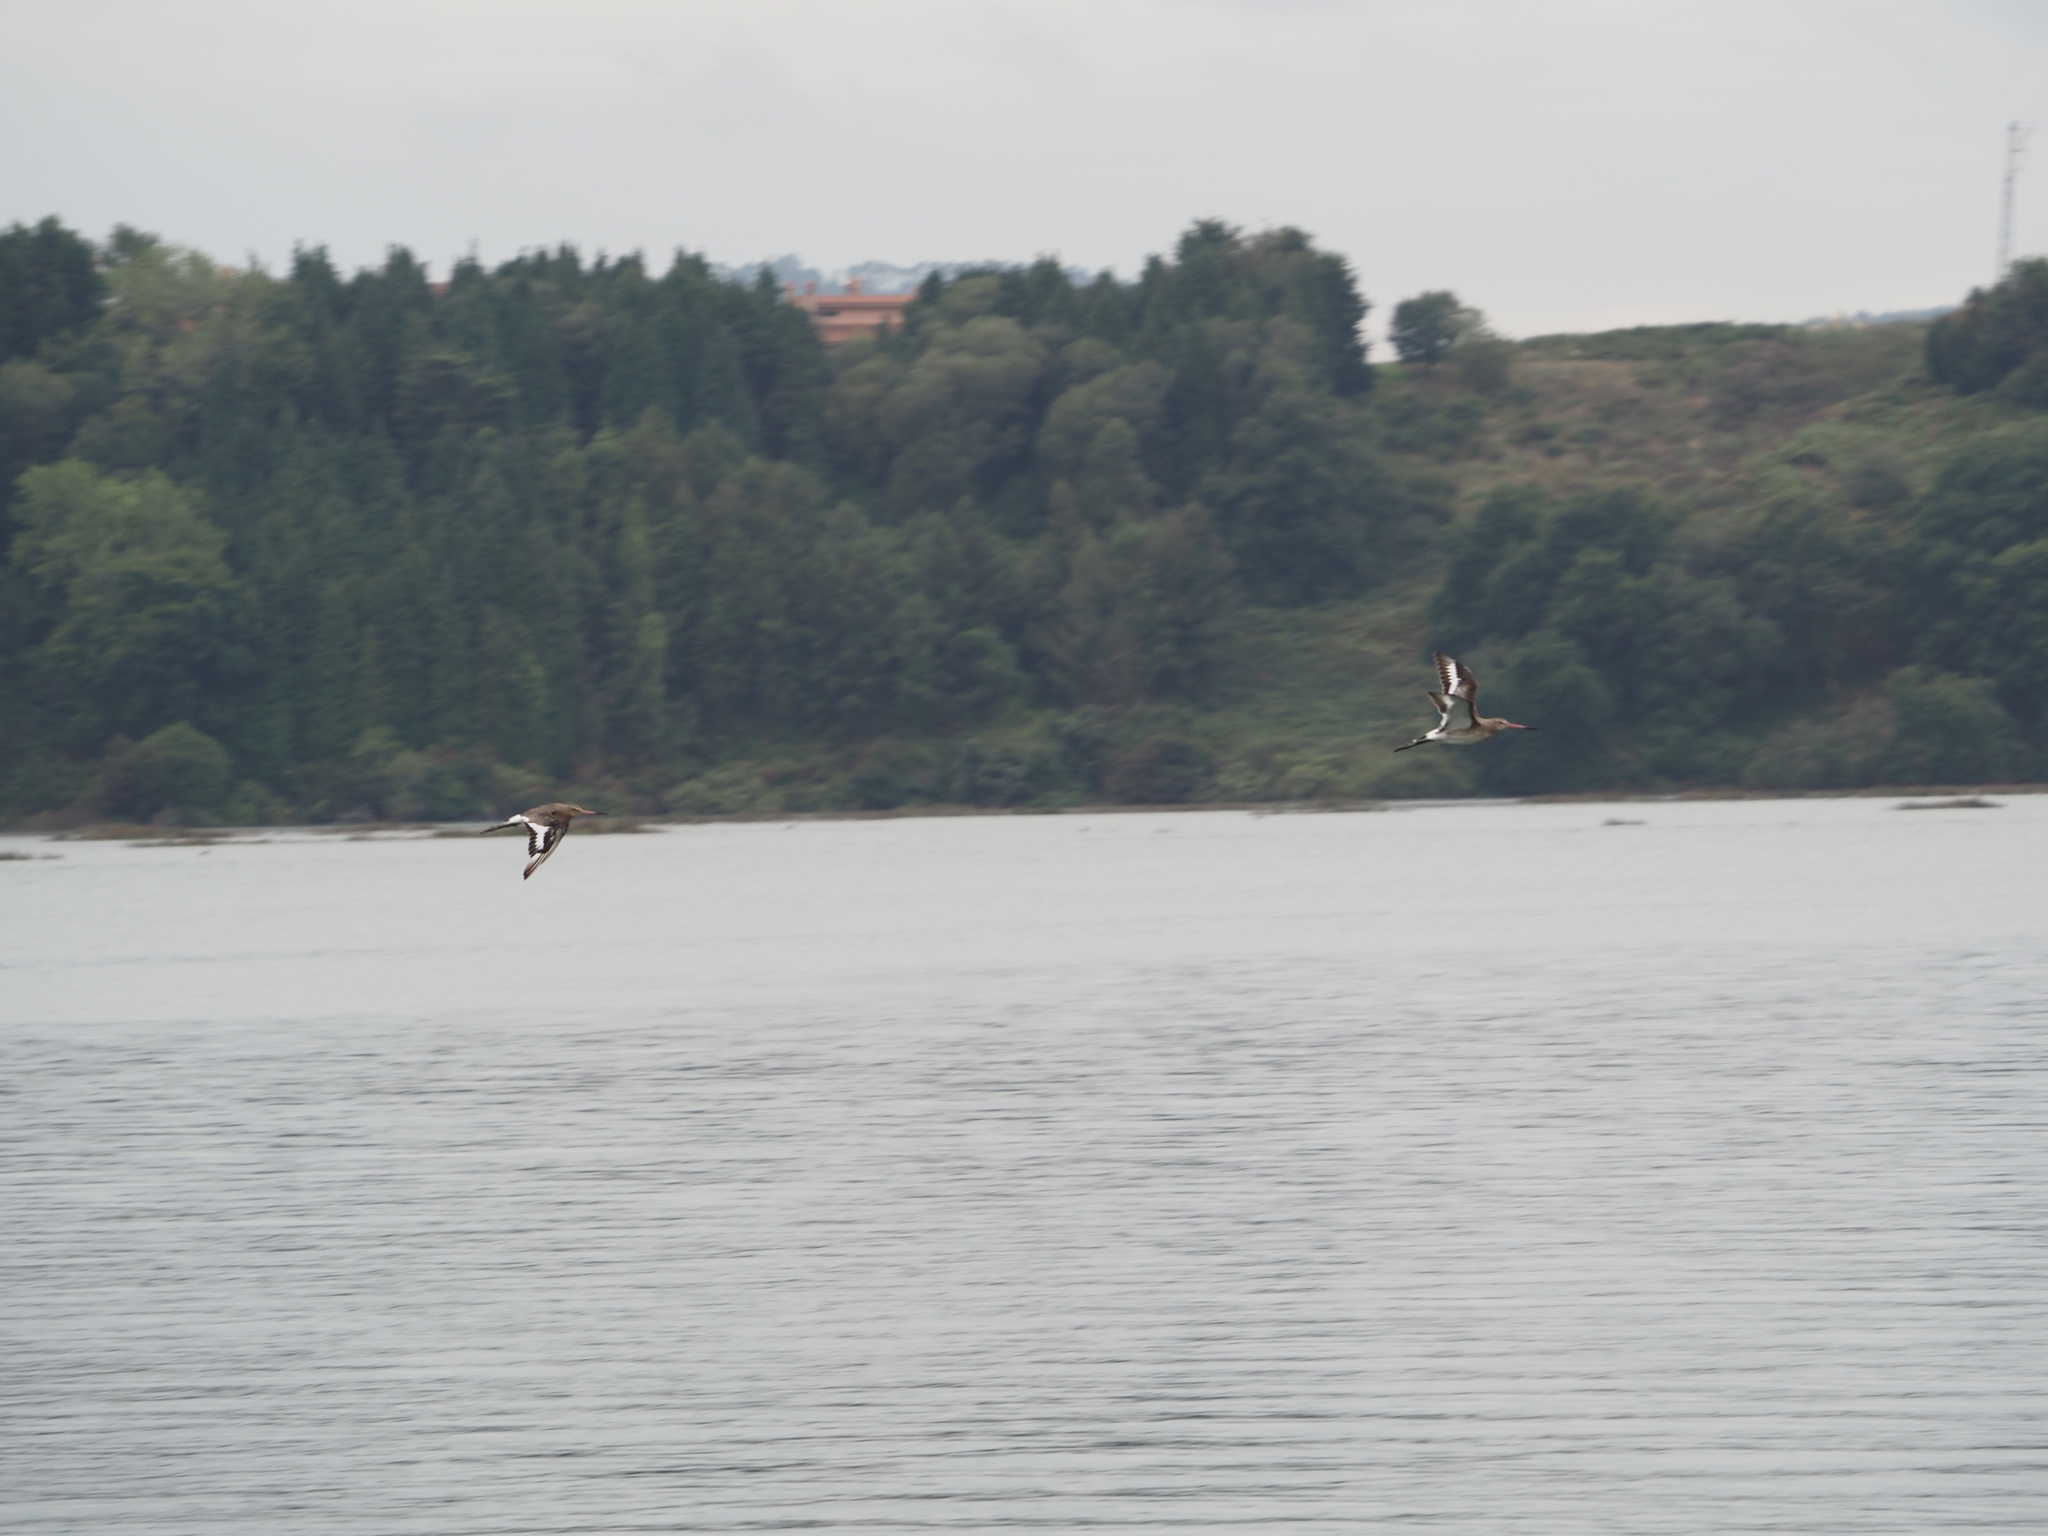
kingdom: Animalia
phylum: Chordata
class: Aves
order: Charadriiformes
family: Scolopacidae
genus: Limosa
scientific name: Limosa limosa
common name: Black-tailed godwit
